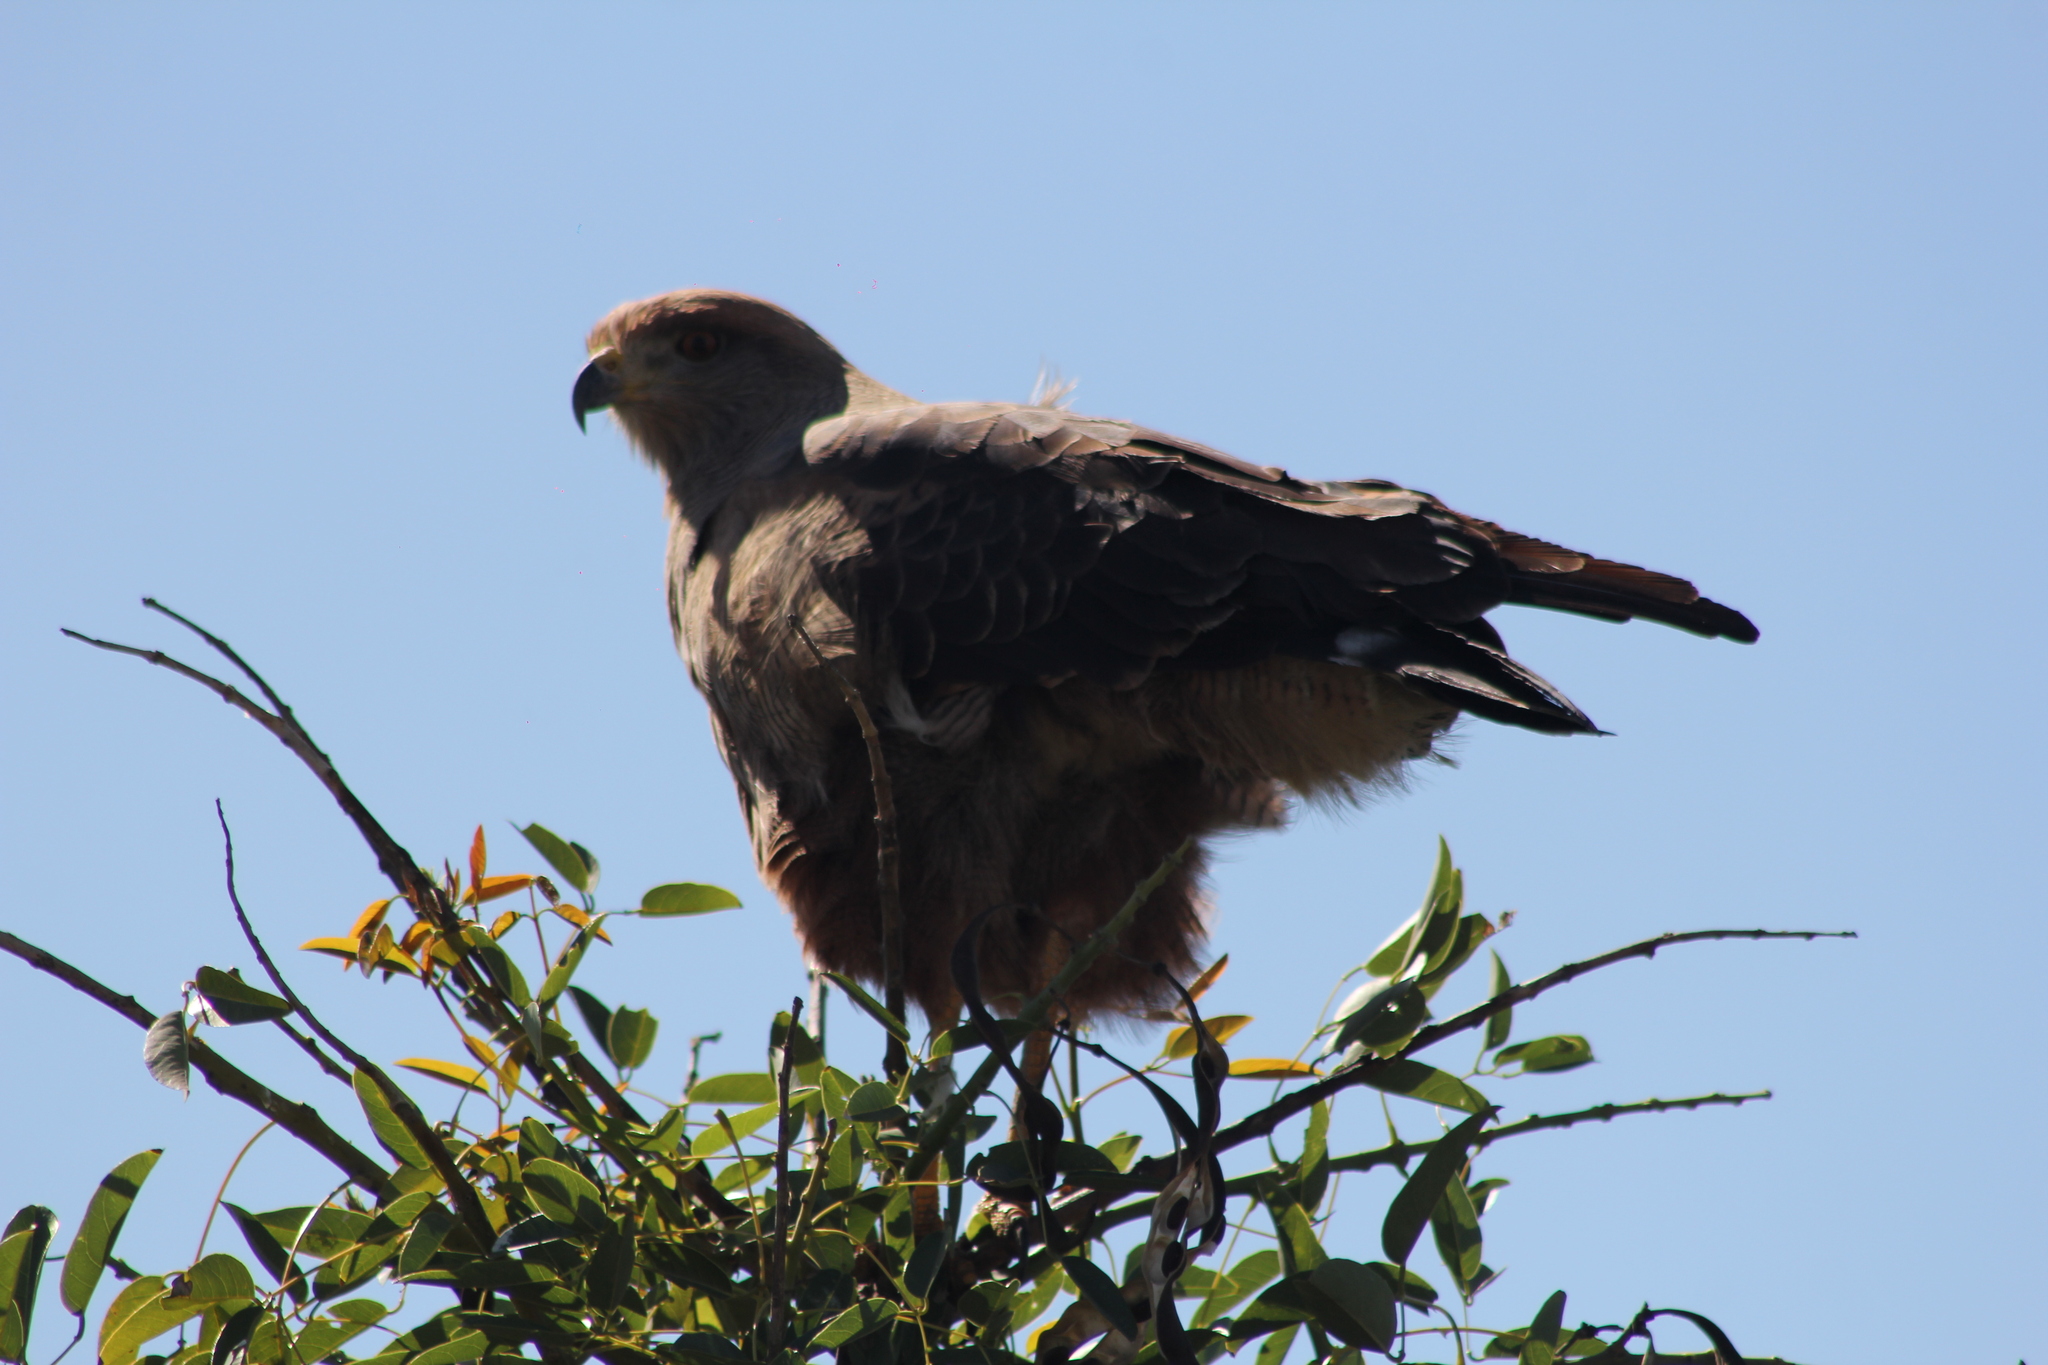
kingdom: Animalia
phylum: Chordata
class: Aves
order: Accipitriformes
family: Accipitridae
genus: Buteogallus
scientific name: Buteogallus meridionalis
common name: Savanna hawk
